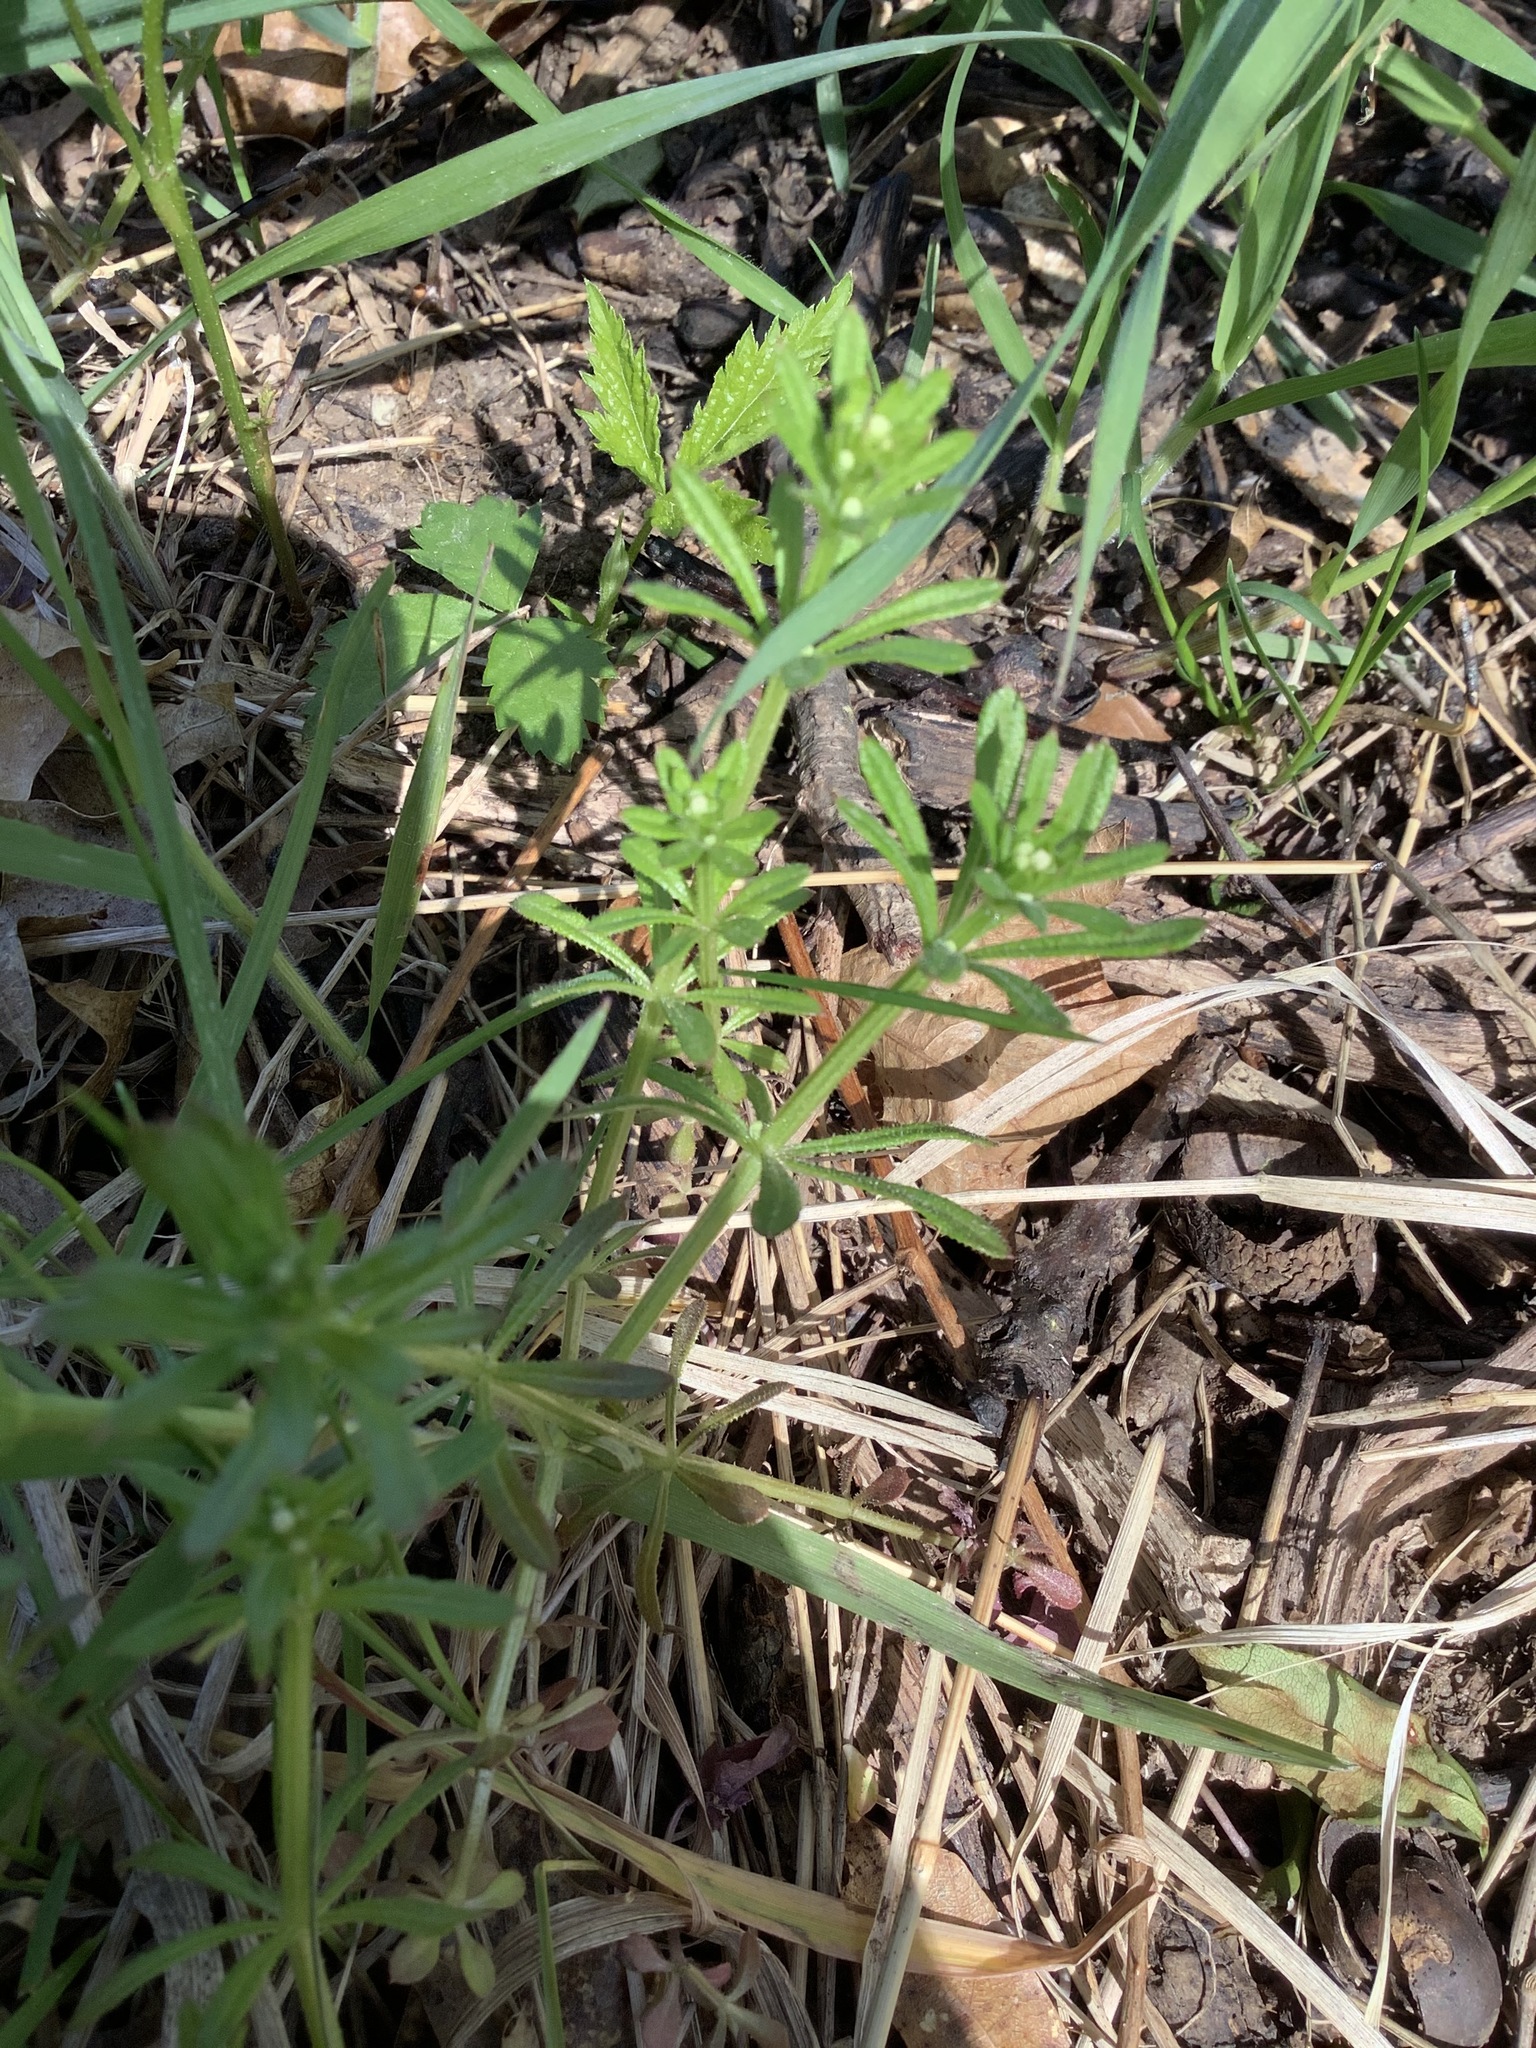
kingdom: Plantae
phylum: Tracheophyta
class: Magnoliopsida
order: Gentianales
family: Rubiaceae
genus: Galium
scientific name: Galium aparine
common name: Cleavers
